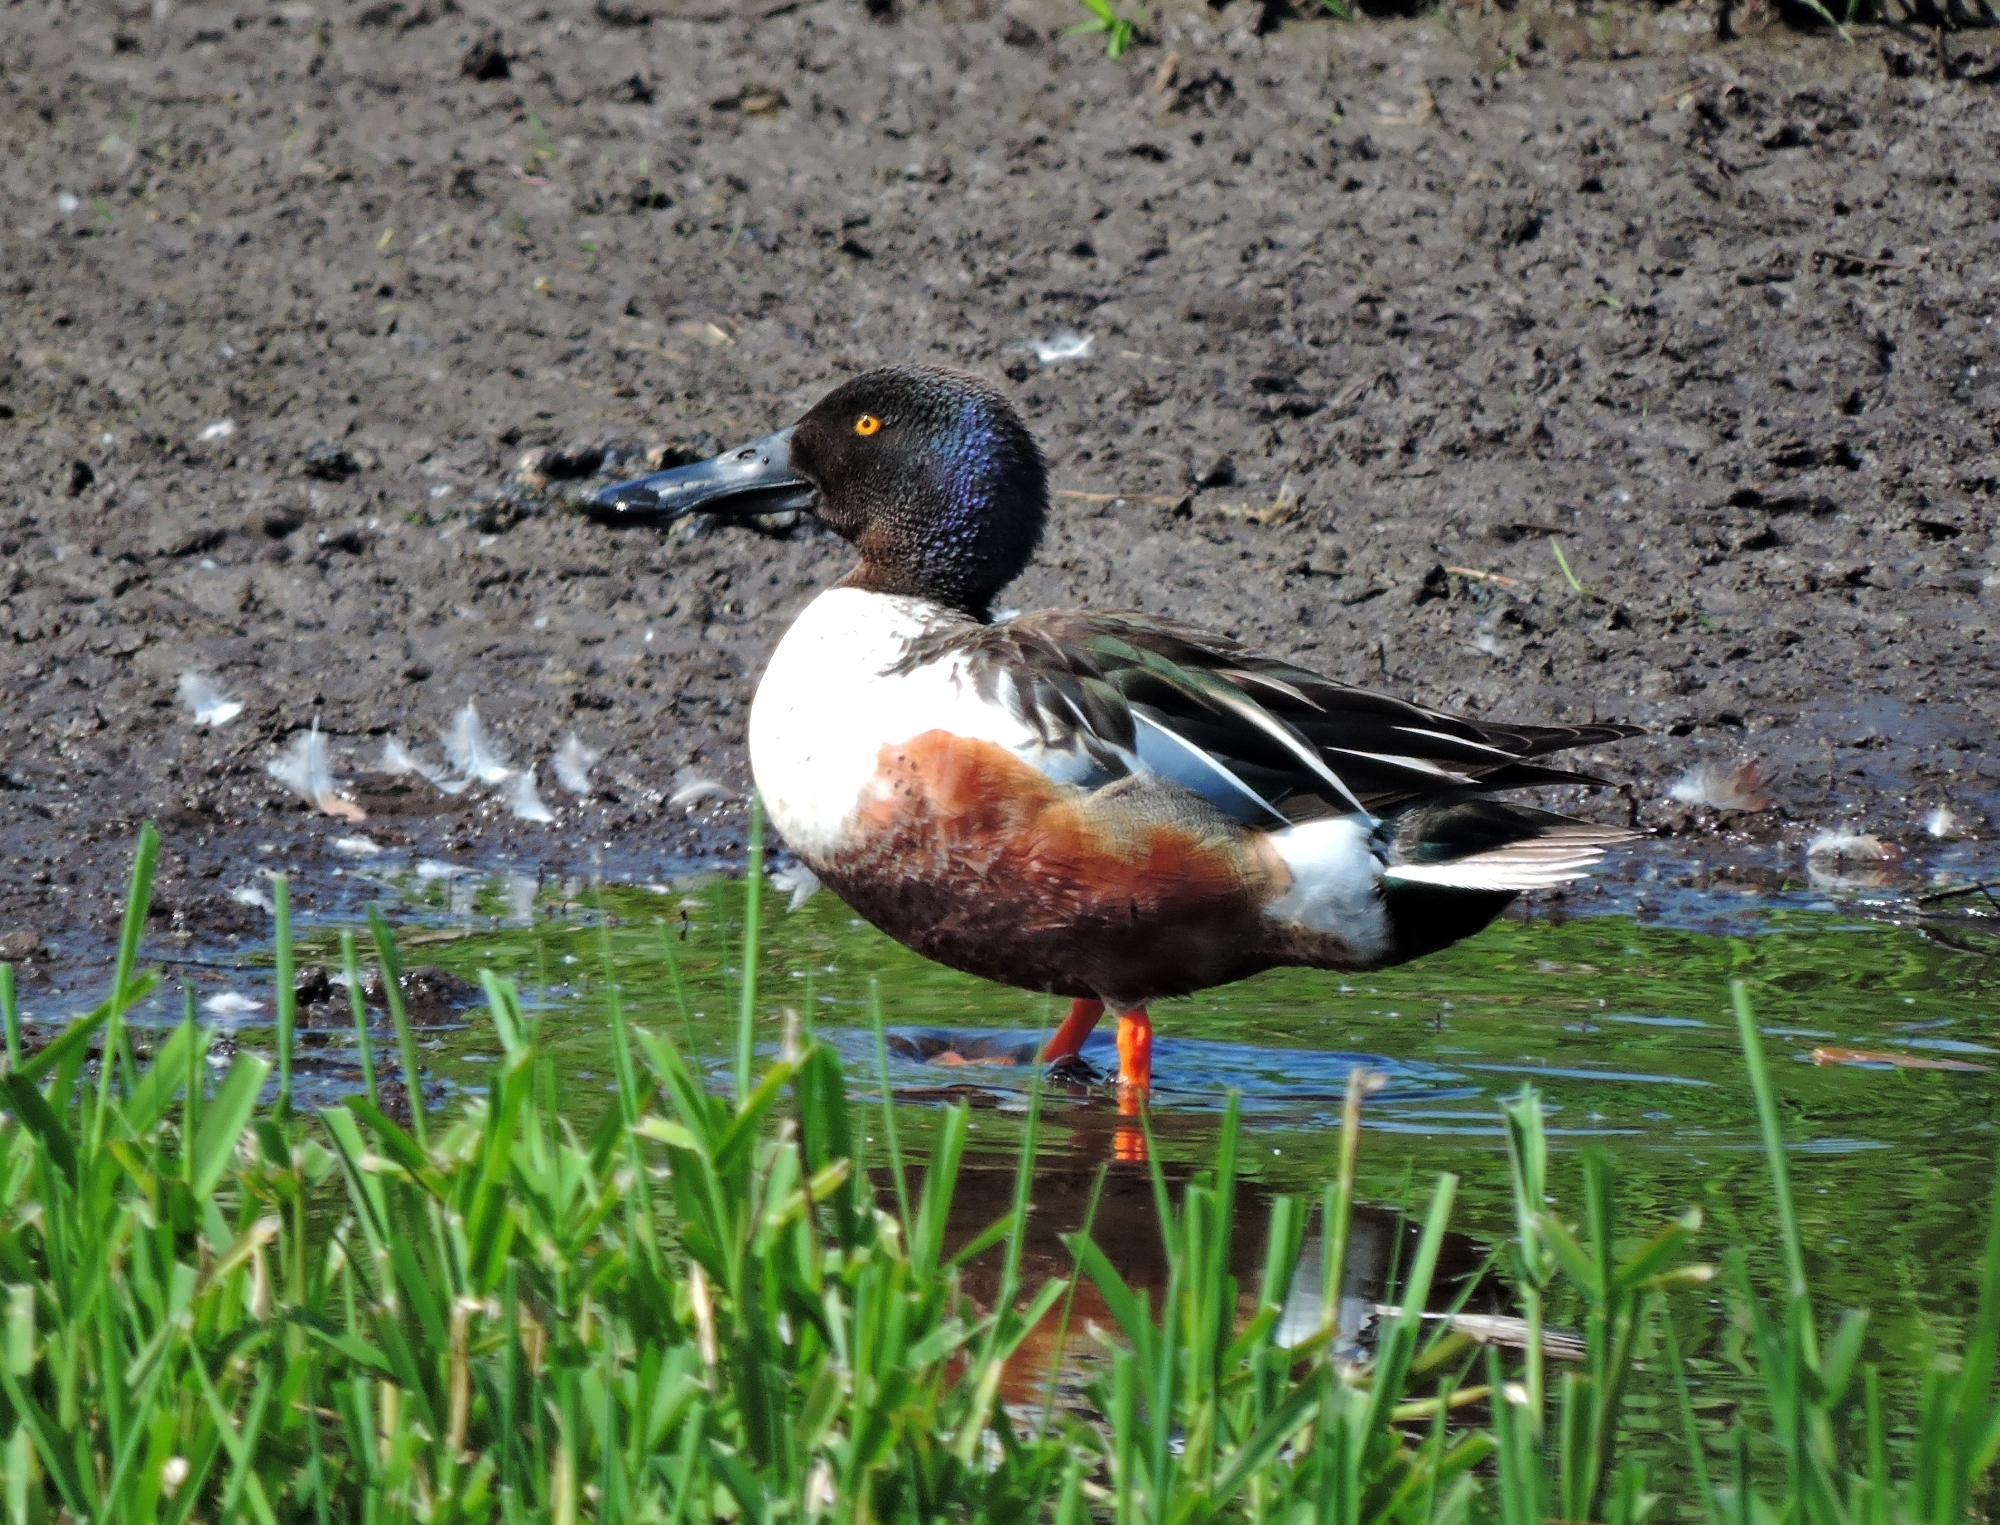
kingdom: Animalia
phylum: Chordata
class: Aves
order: Anseriformes
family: Anatidae
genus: Spatula
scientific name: Spatula clypeata
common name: Northern shoveler
